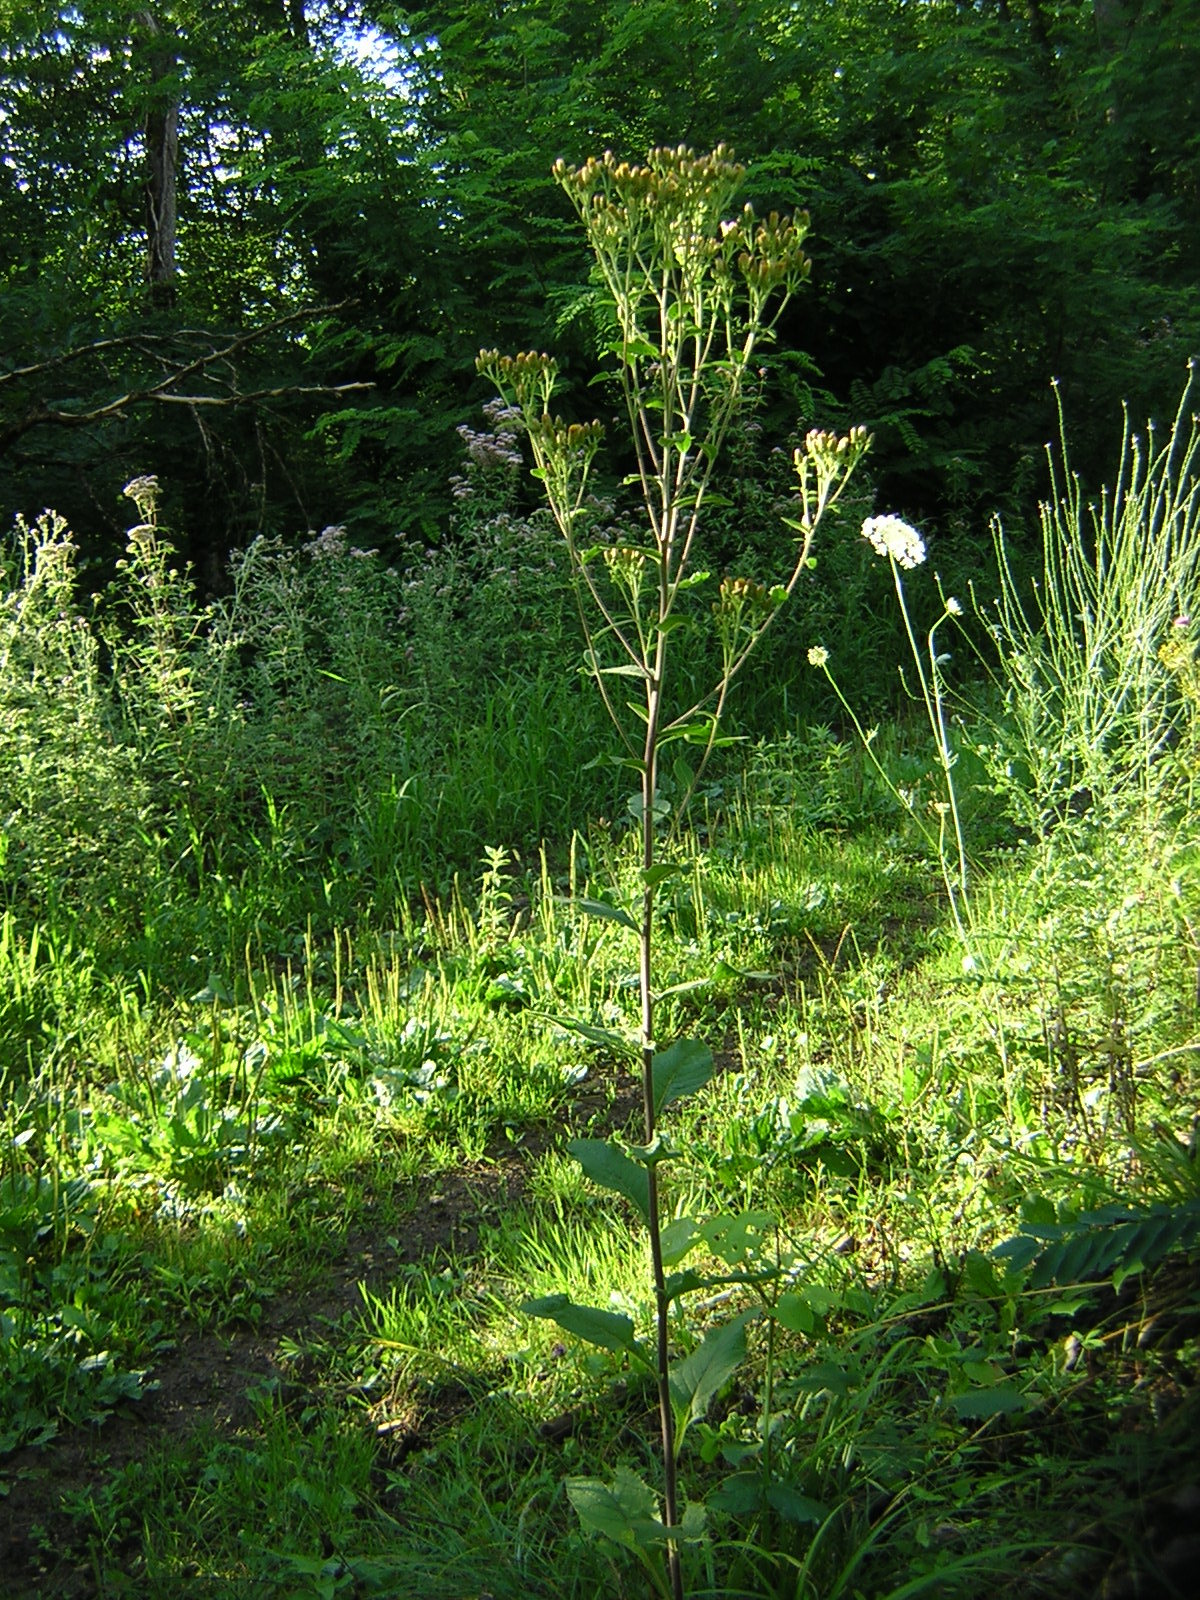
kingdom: Plantae
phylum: Tracheophyta
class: Magnoliopsida
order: Asterales
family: Asteraceae
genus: Pentanema
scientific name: Pentanema squarrosum
